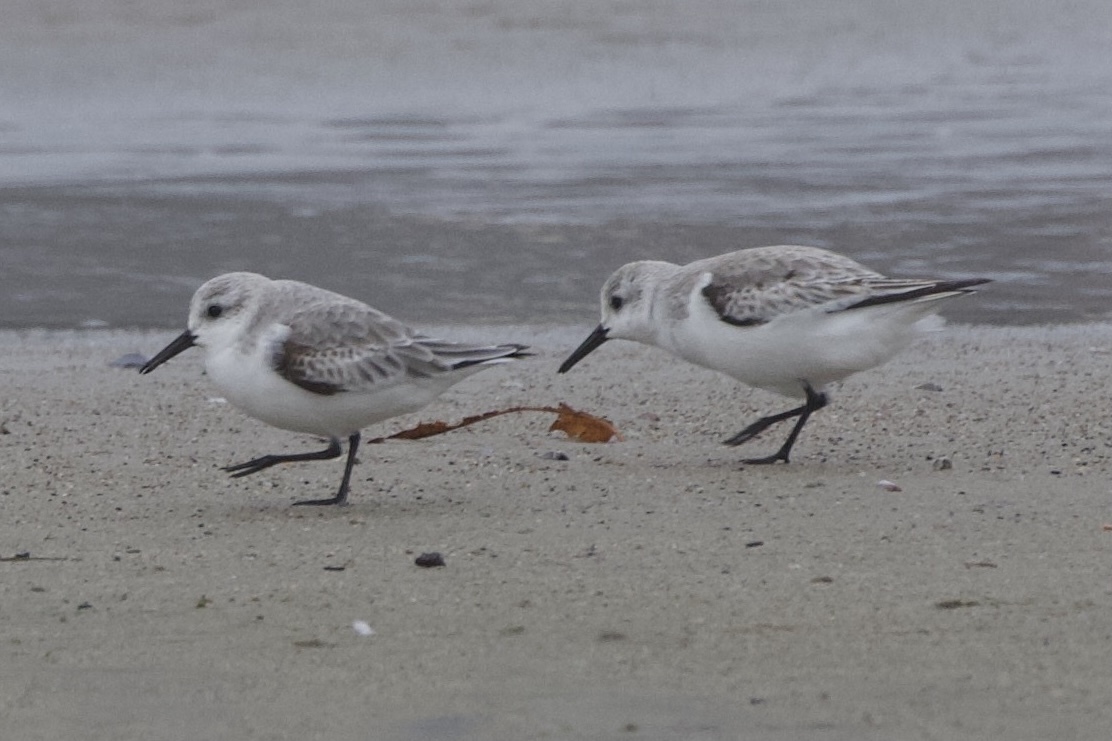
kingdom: Animalia
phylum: Chordata
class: Aves
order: Charadriiformes
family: Scolopacidae
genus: Calidris
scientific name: Calidris alba
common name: Sanderling
